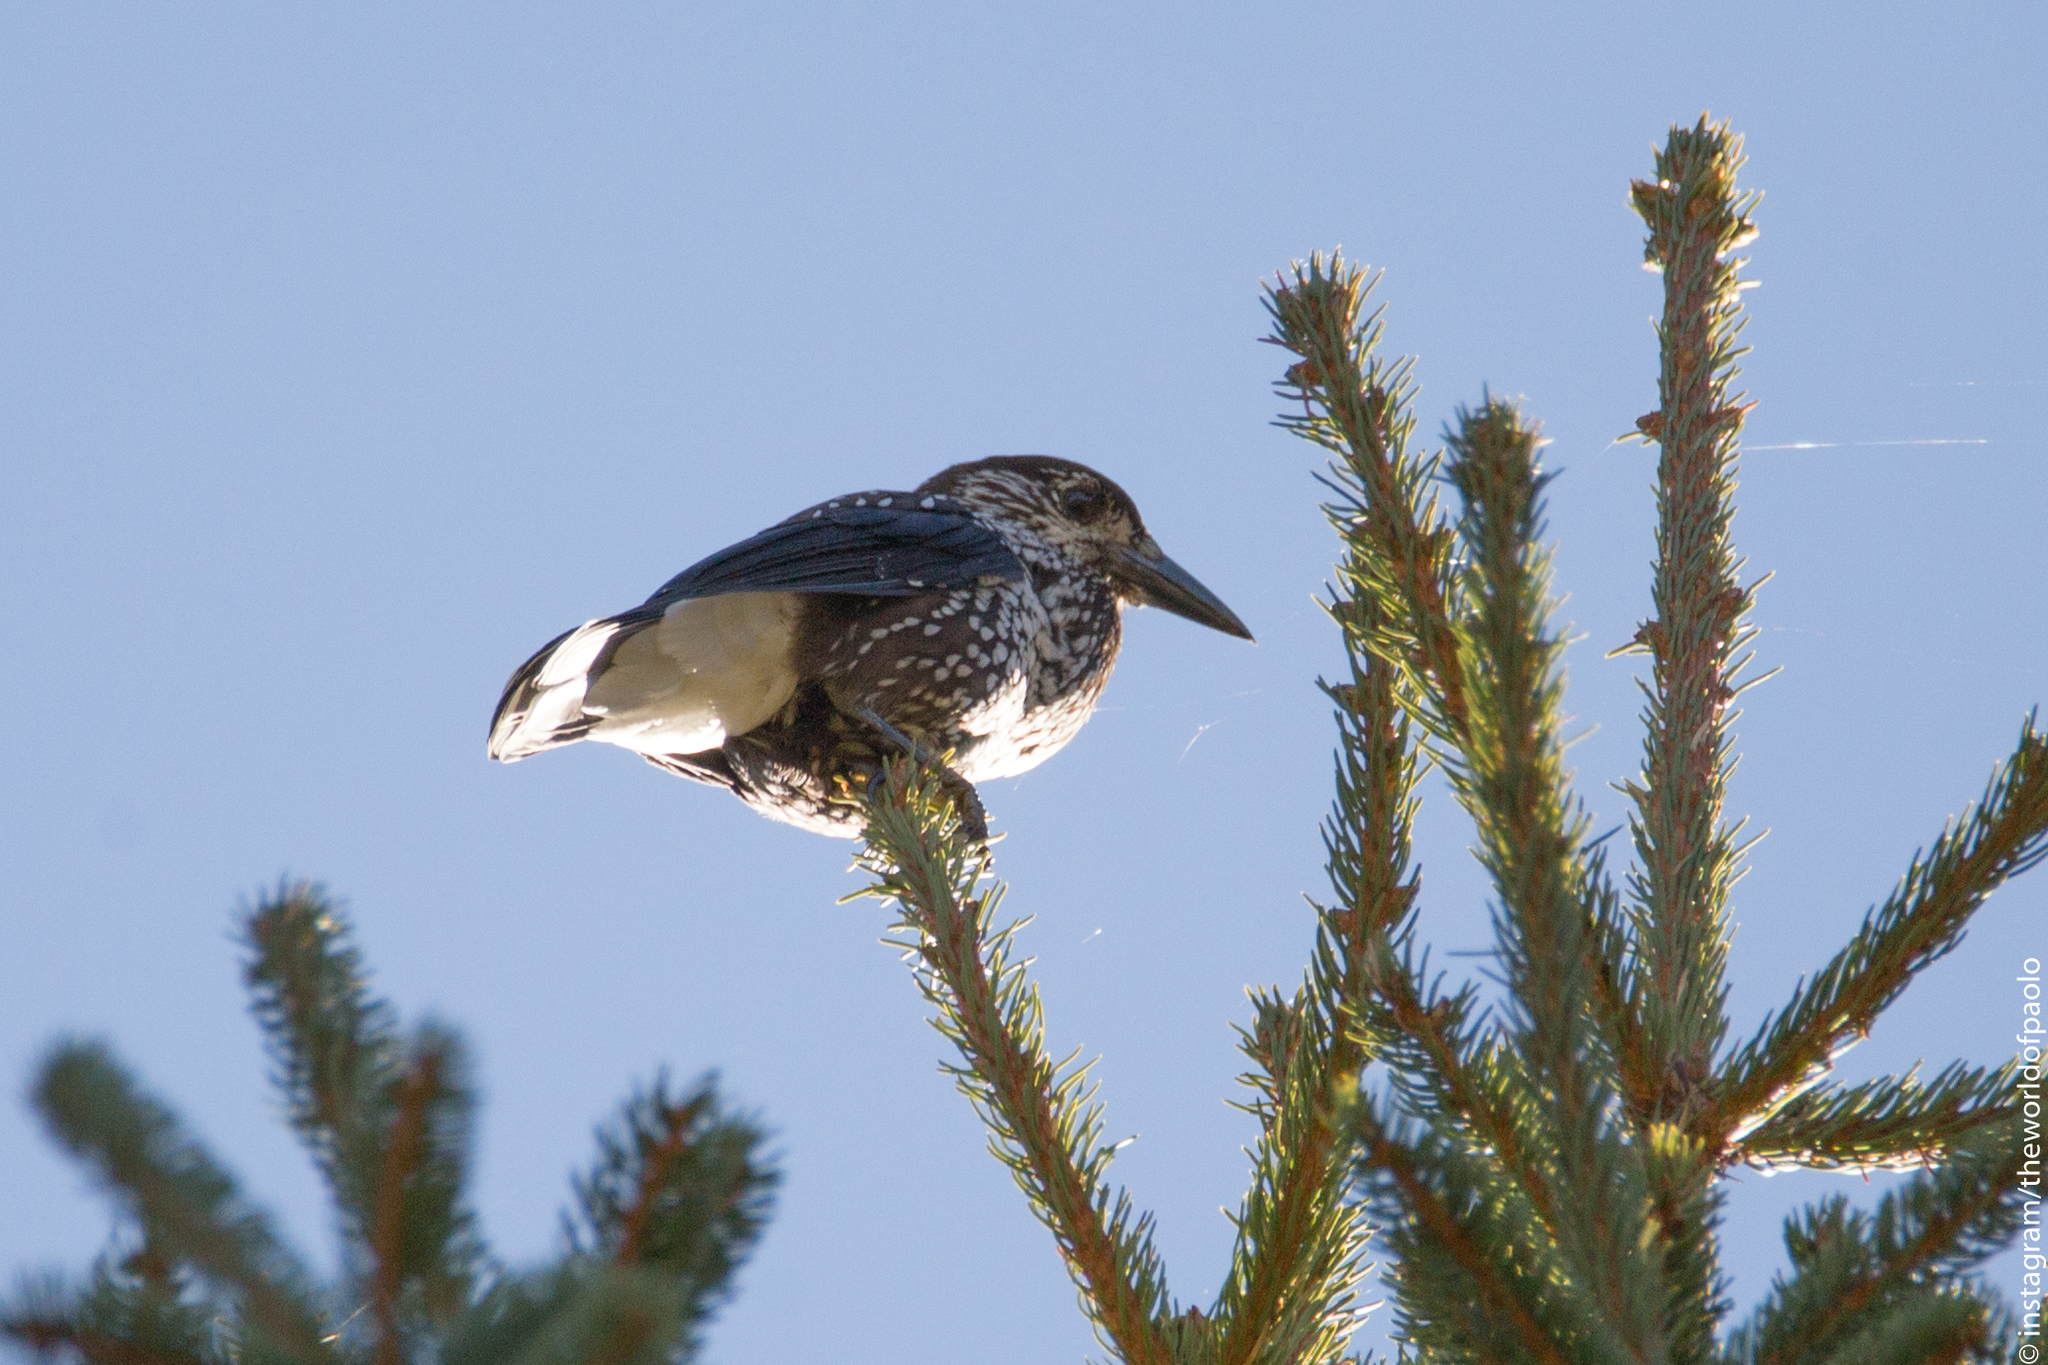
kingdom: Animalia
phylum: Chordata
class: Aves
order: Passeriformes
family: Corvidae
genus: Nucifraga
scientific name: Nucifraga caryocatactes
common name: Spotted nutcracker
